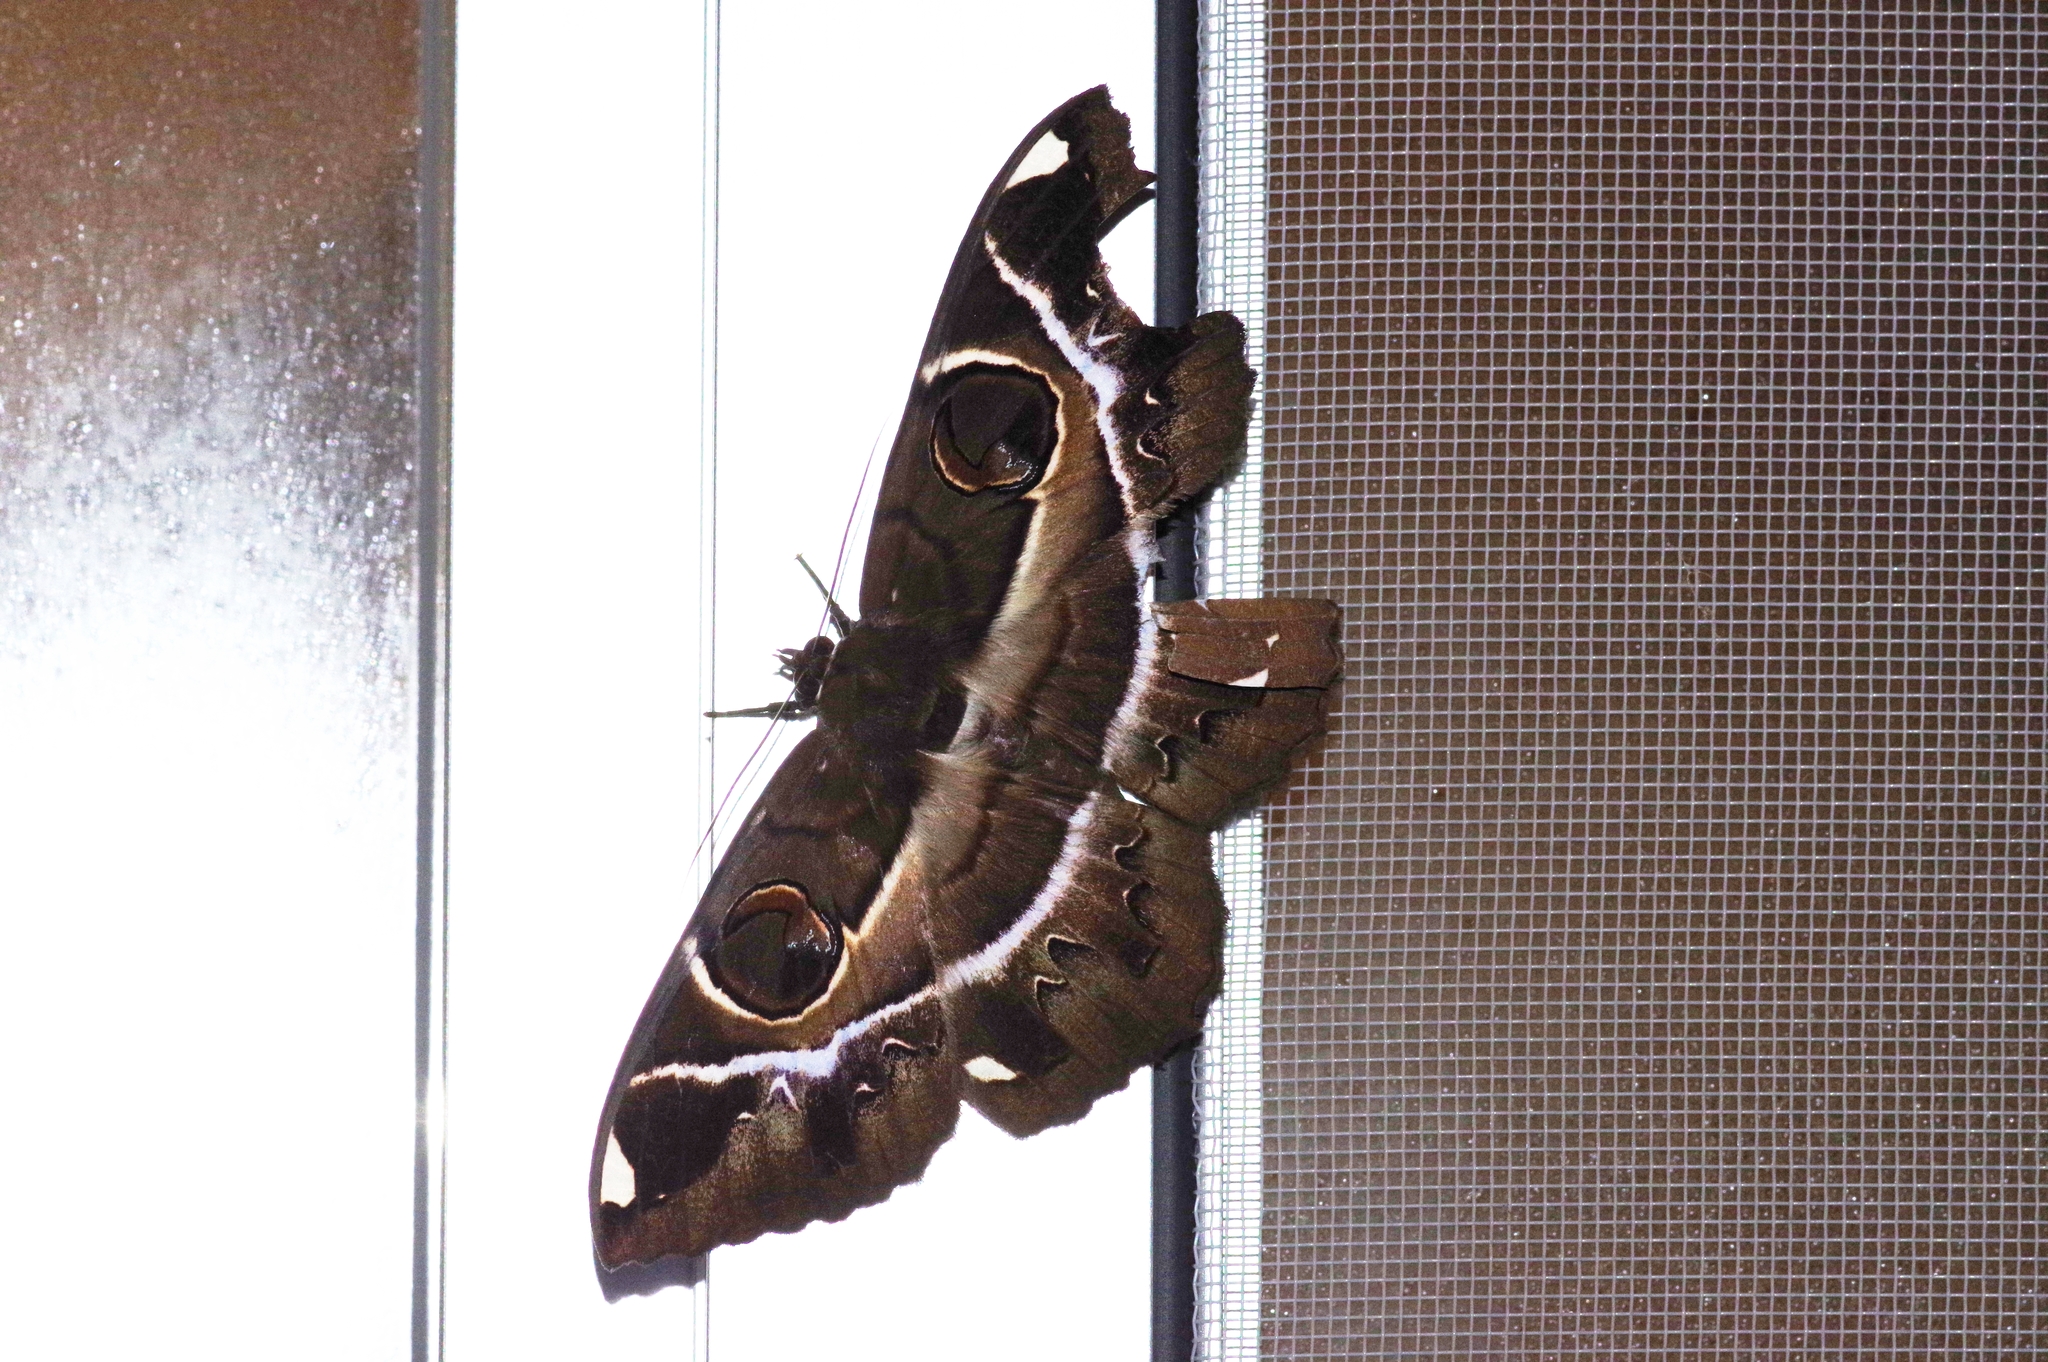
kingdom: Animalia
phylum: Arthropoda
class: Insecta
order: Lepidoptera
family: Erebidae
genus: Erebus
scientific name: Erebus ephesperis
